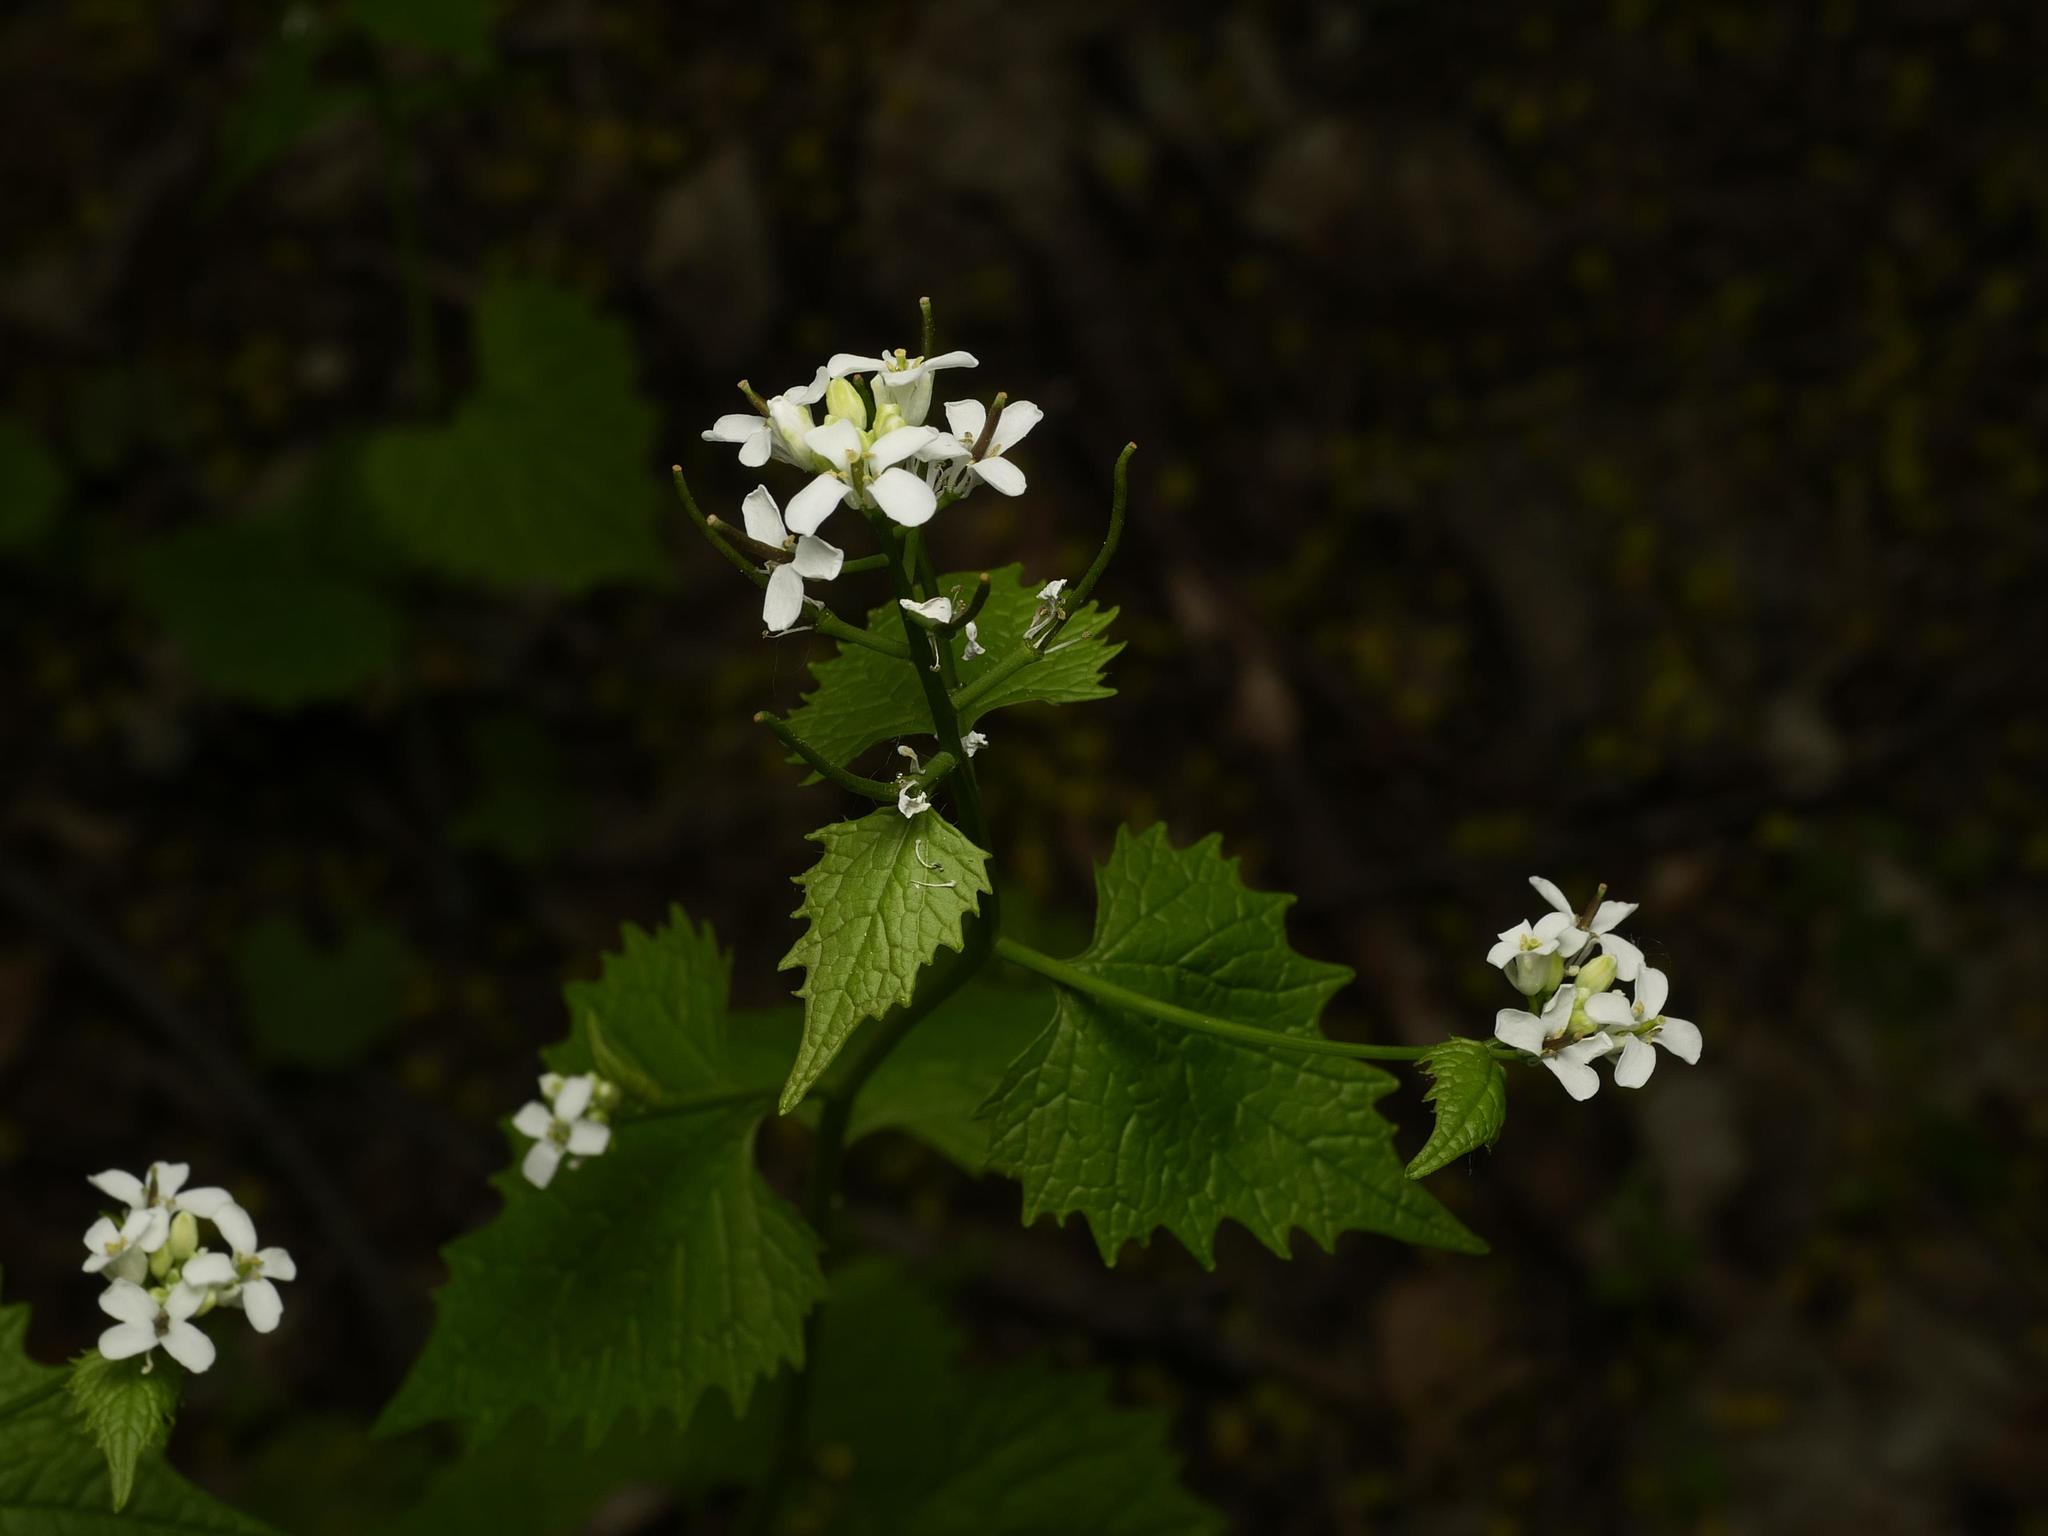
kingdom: Plantae
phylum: Tracheophyta
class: Magnoliopsida
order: Brassicales
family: Brassicaceae
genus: Alliaria
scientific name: Alliaria petiolata
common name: Garlic mustard
